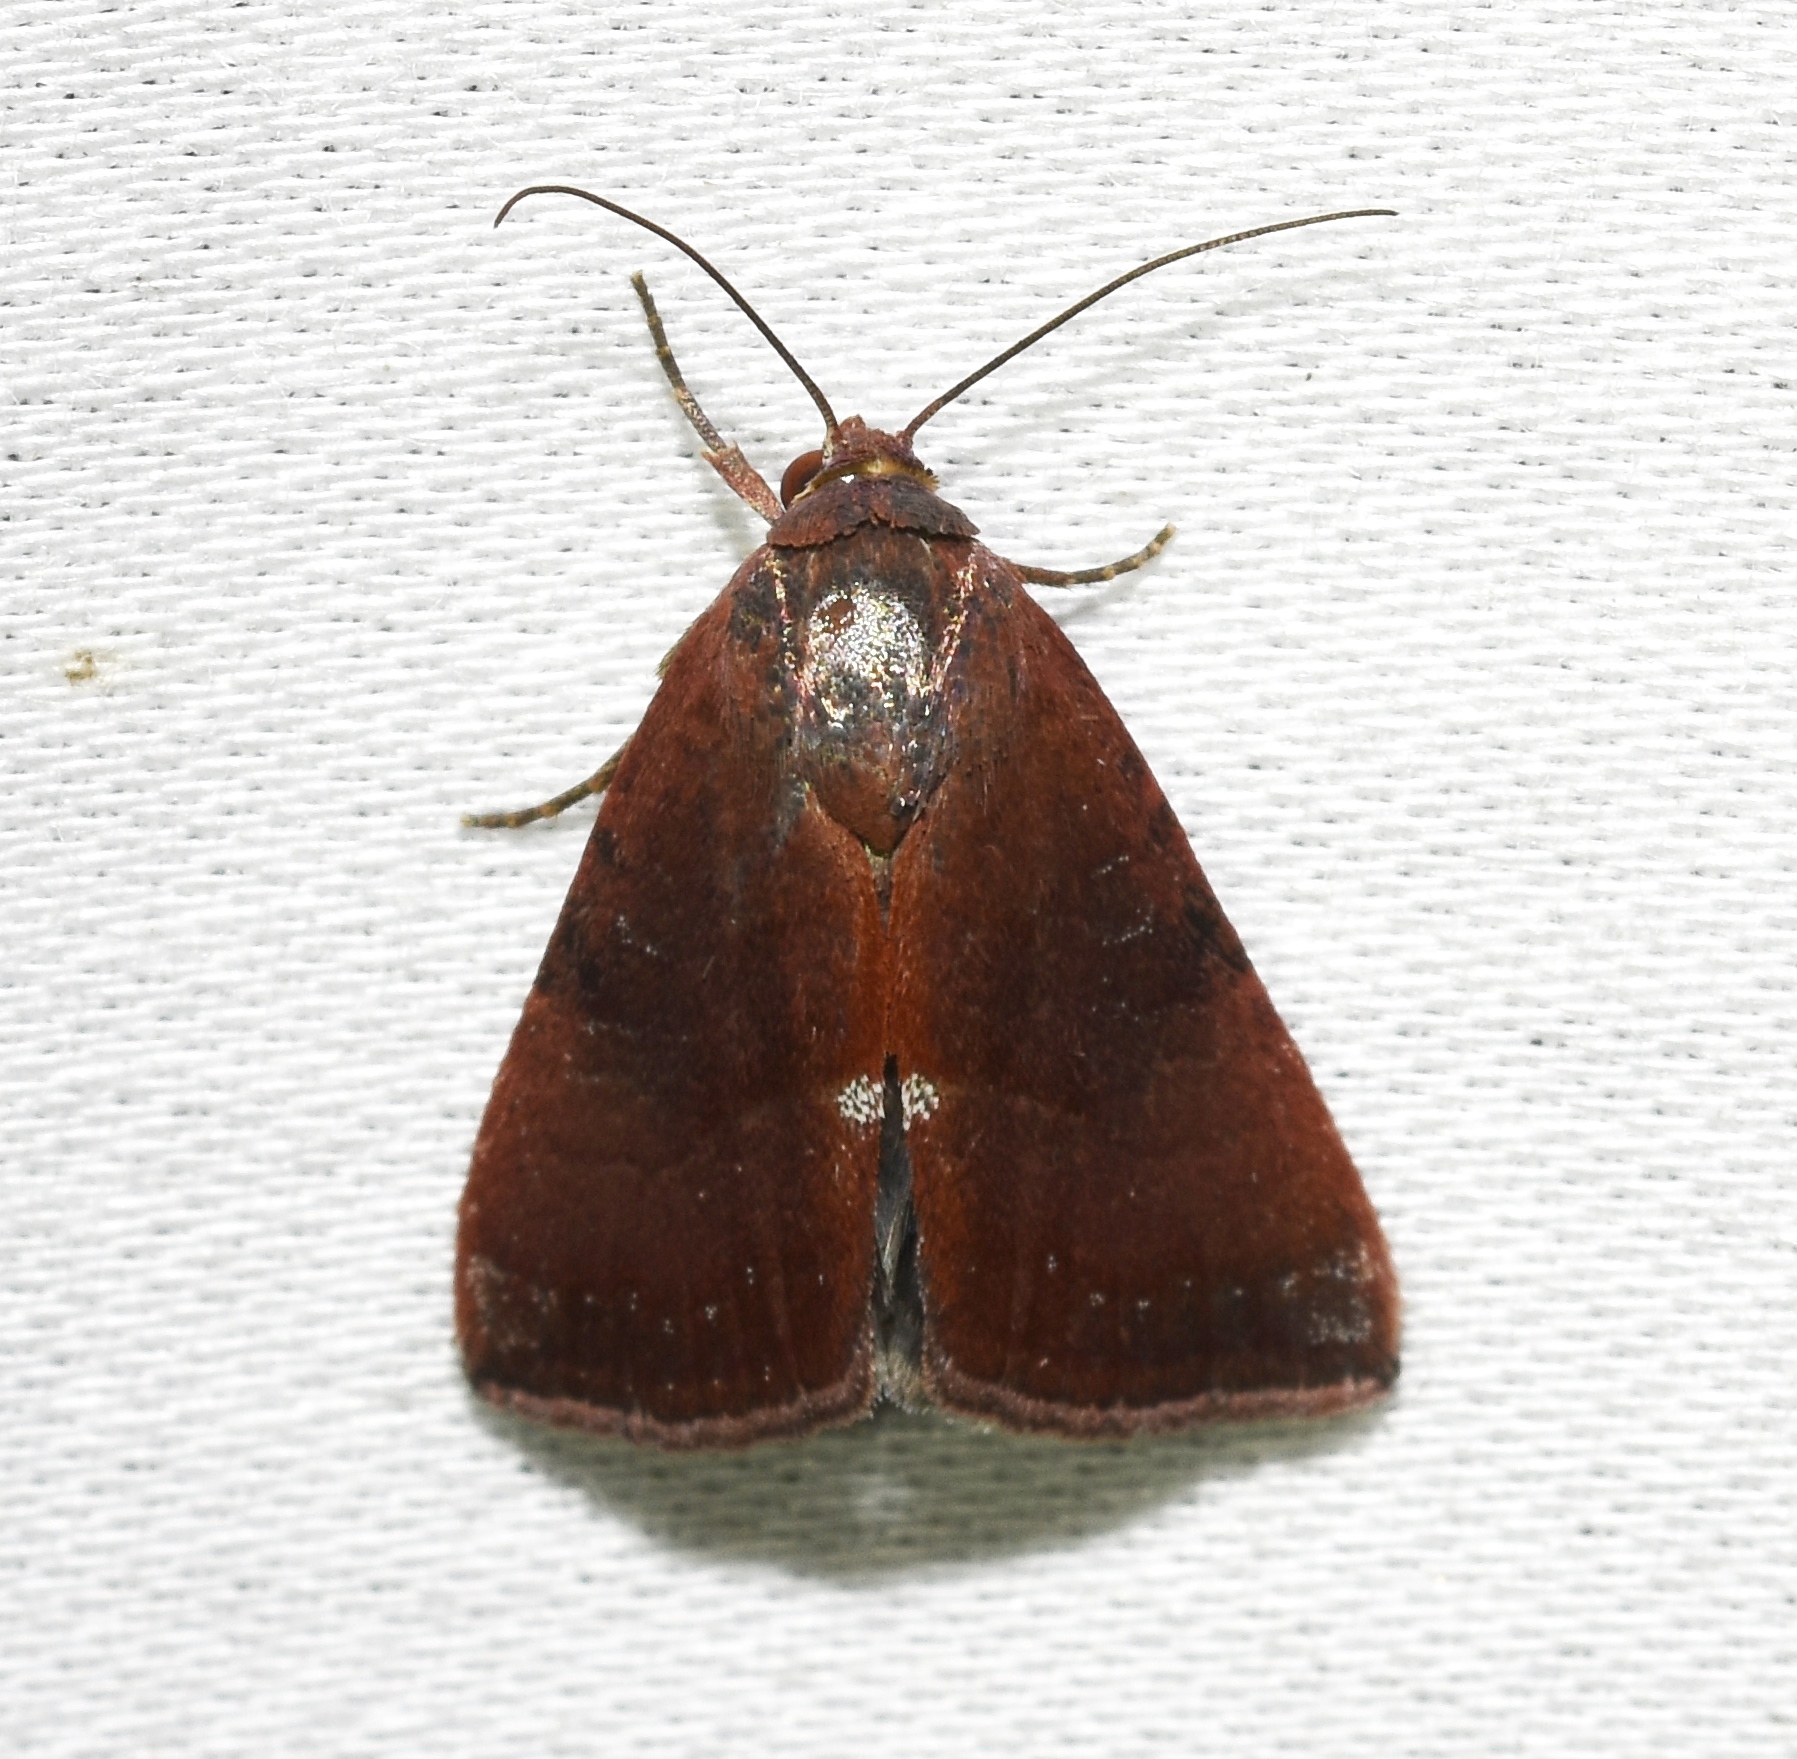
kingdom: Animalia
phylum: Arthropoda
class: Insecta
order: Lepidoptera
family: Noctuidae
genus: Galgula
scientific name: Galgula partita
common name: Wedgeling
